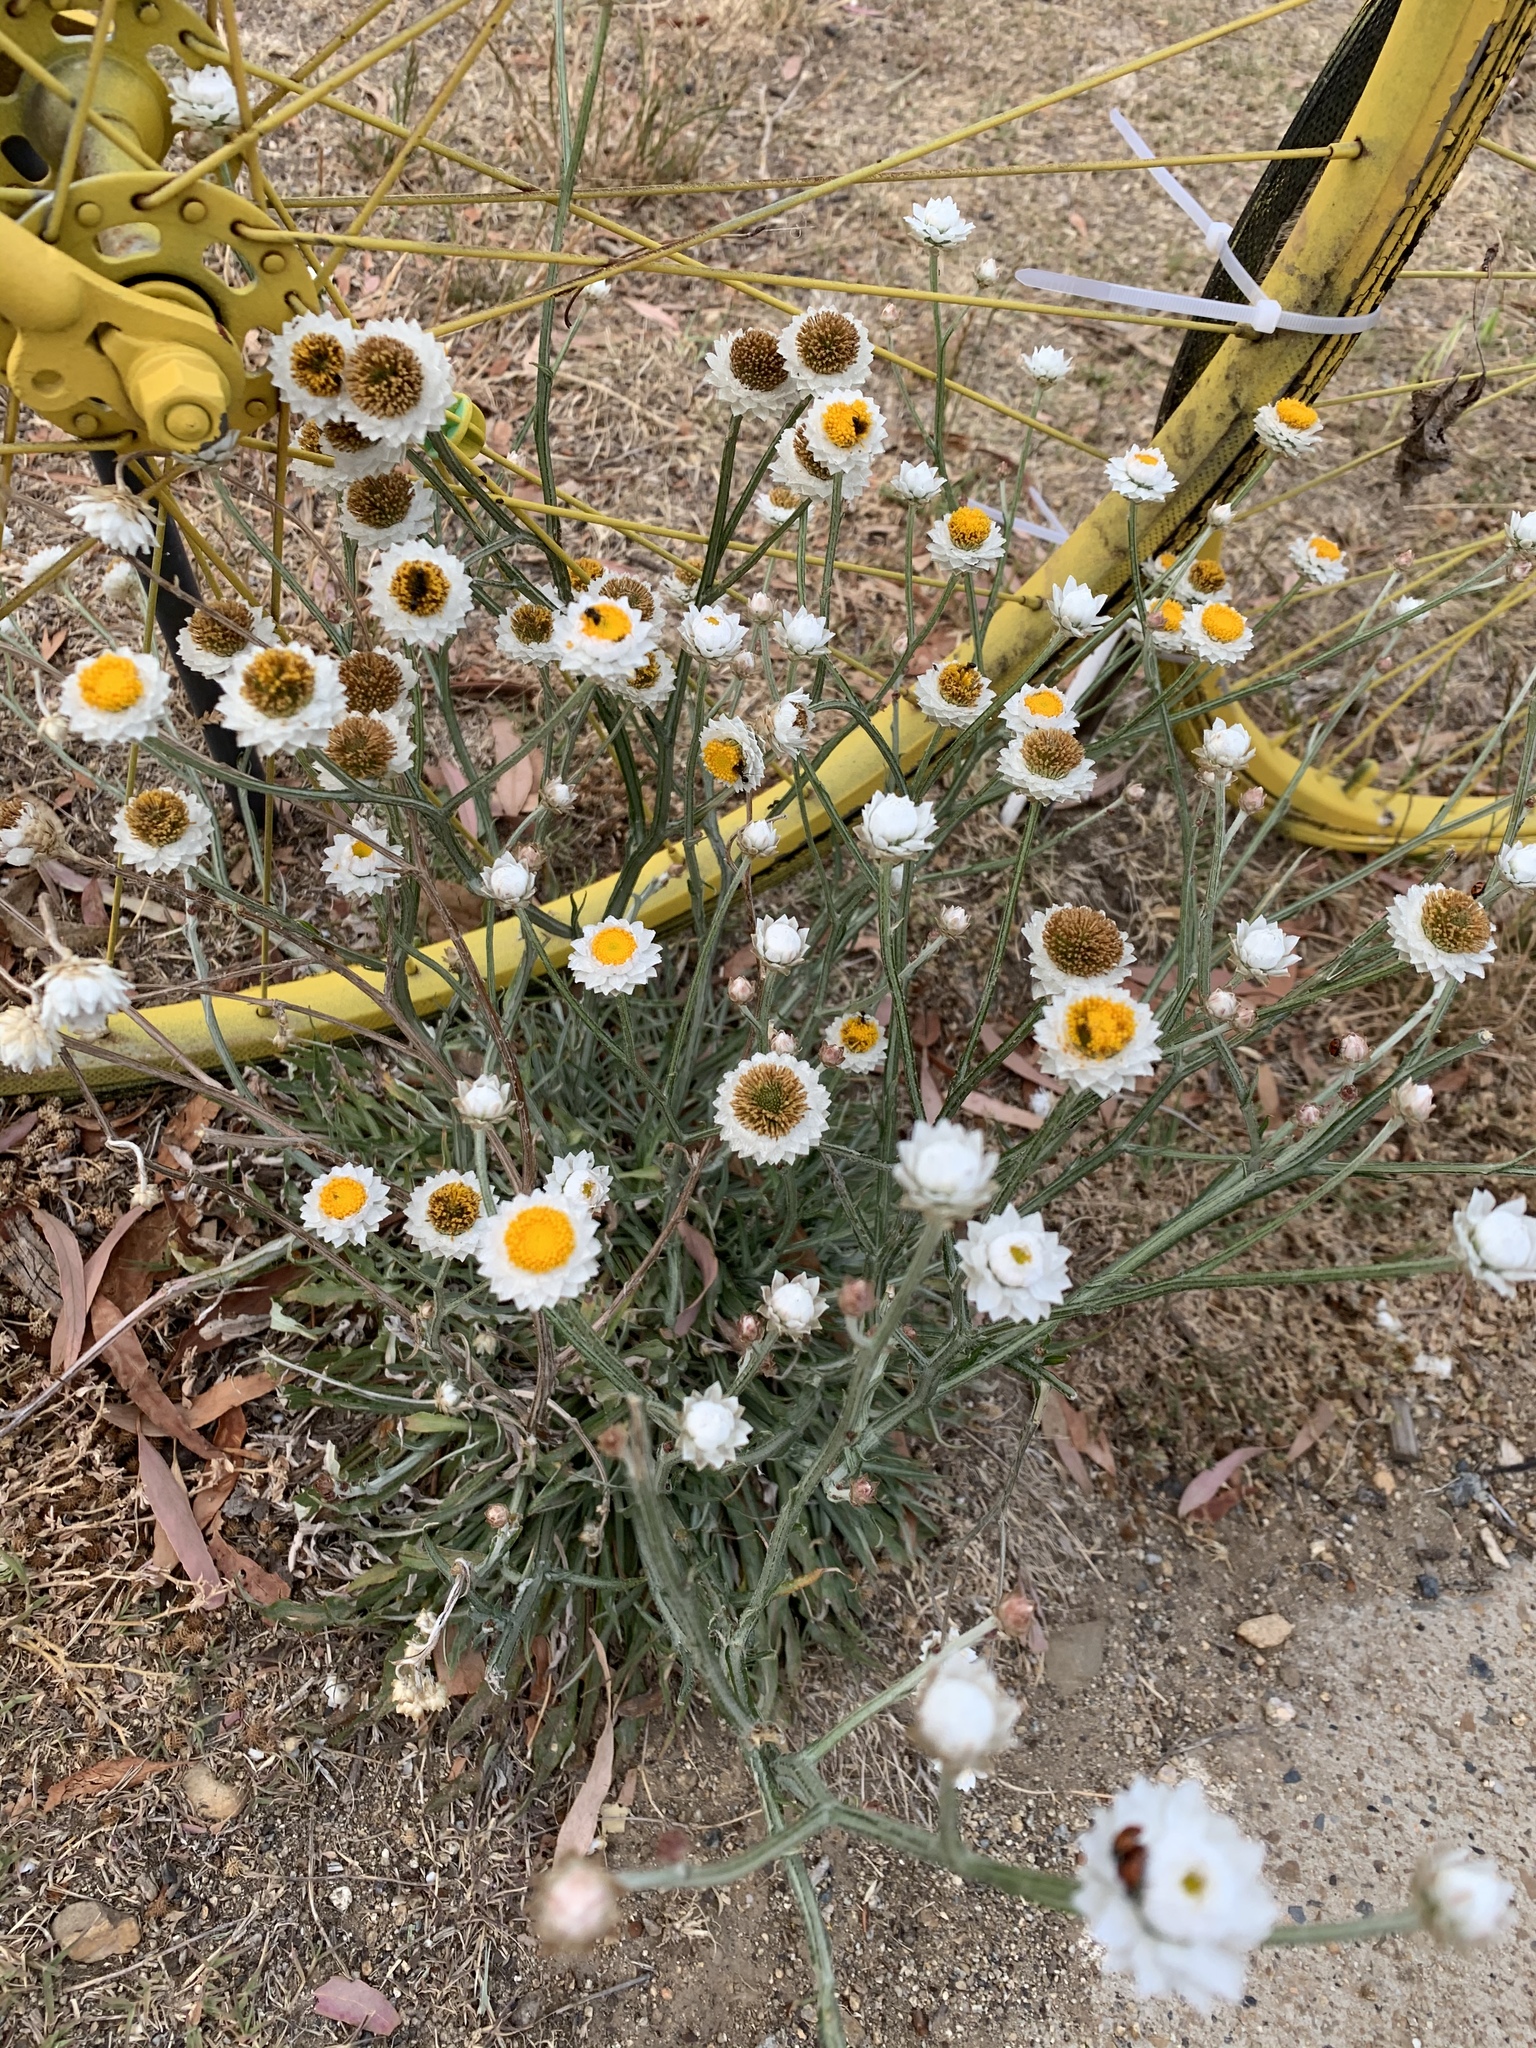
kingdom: Plantae
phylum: Tracheophyta
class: Magnoliopsida
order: Asterales
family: Asteraceae
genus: Ammobium
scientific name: Ammobium alatum
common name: Winged everlasting
